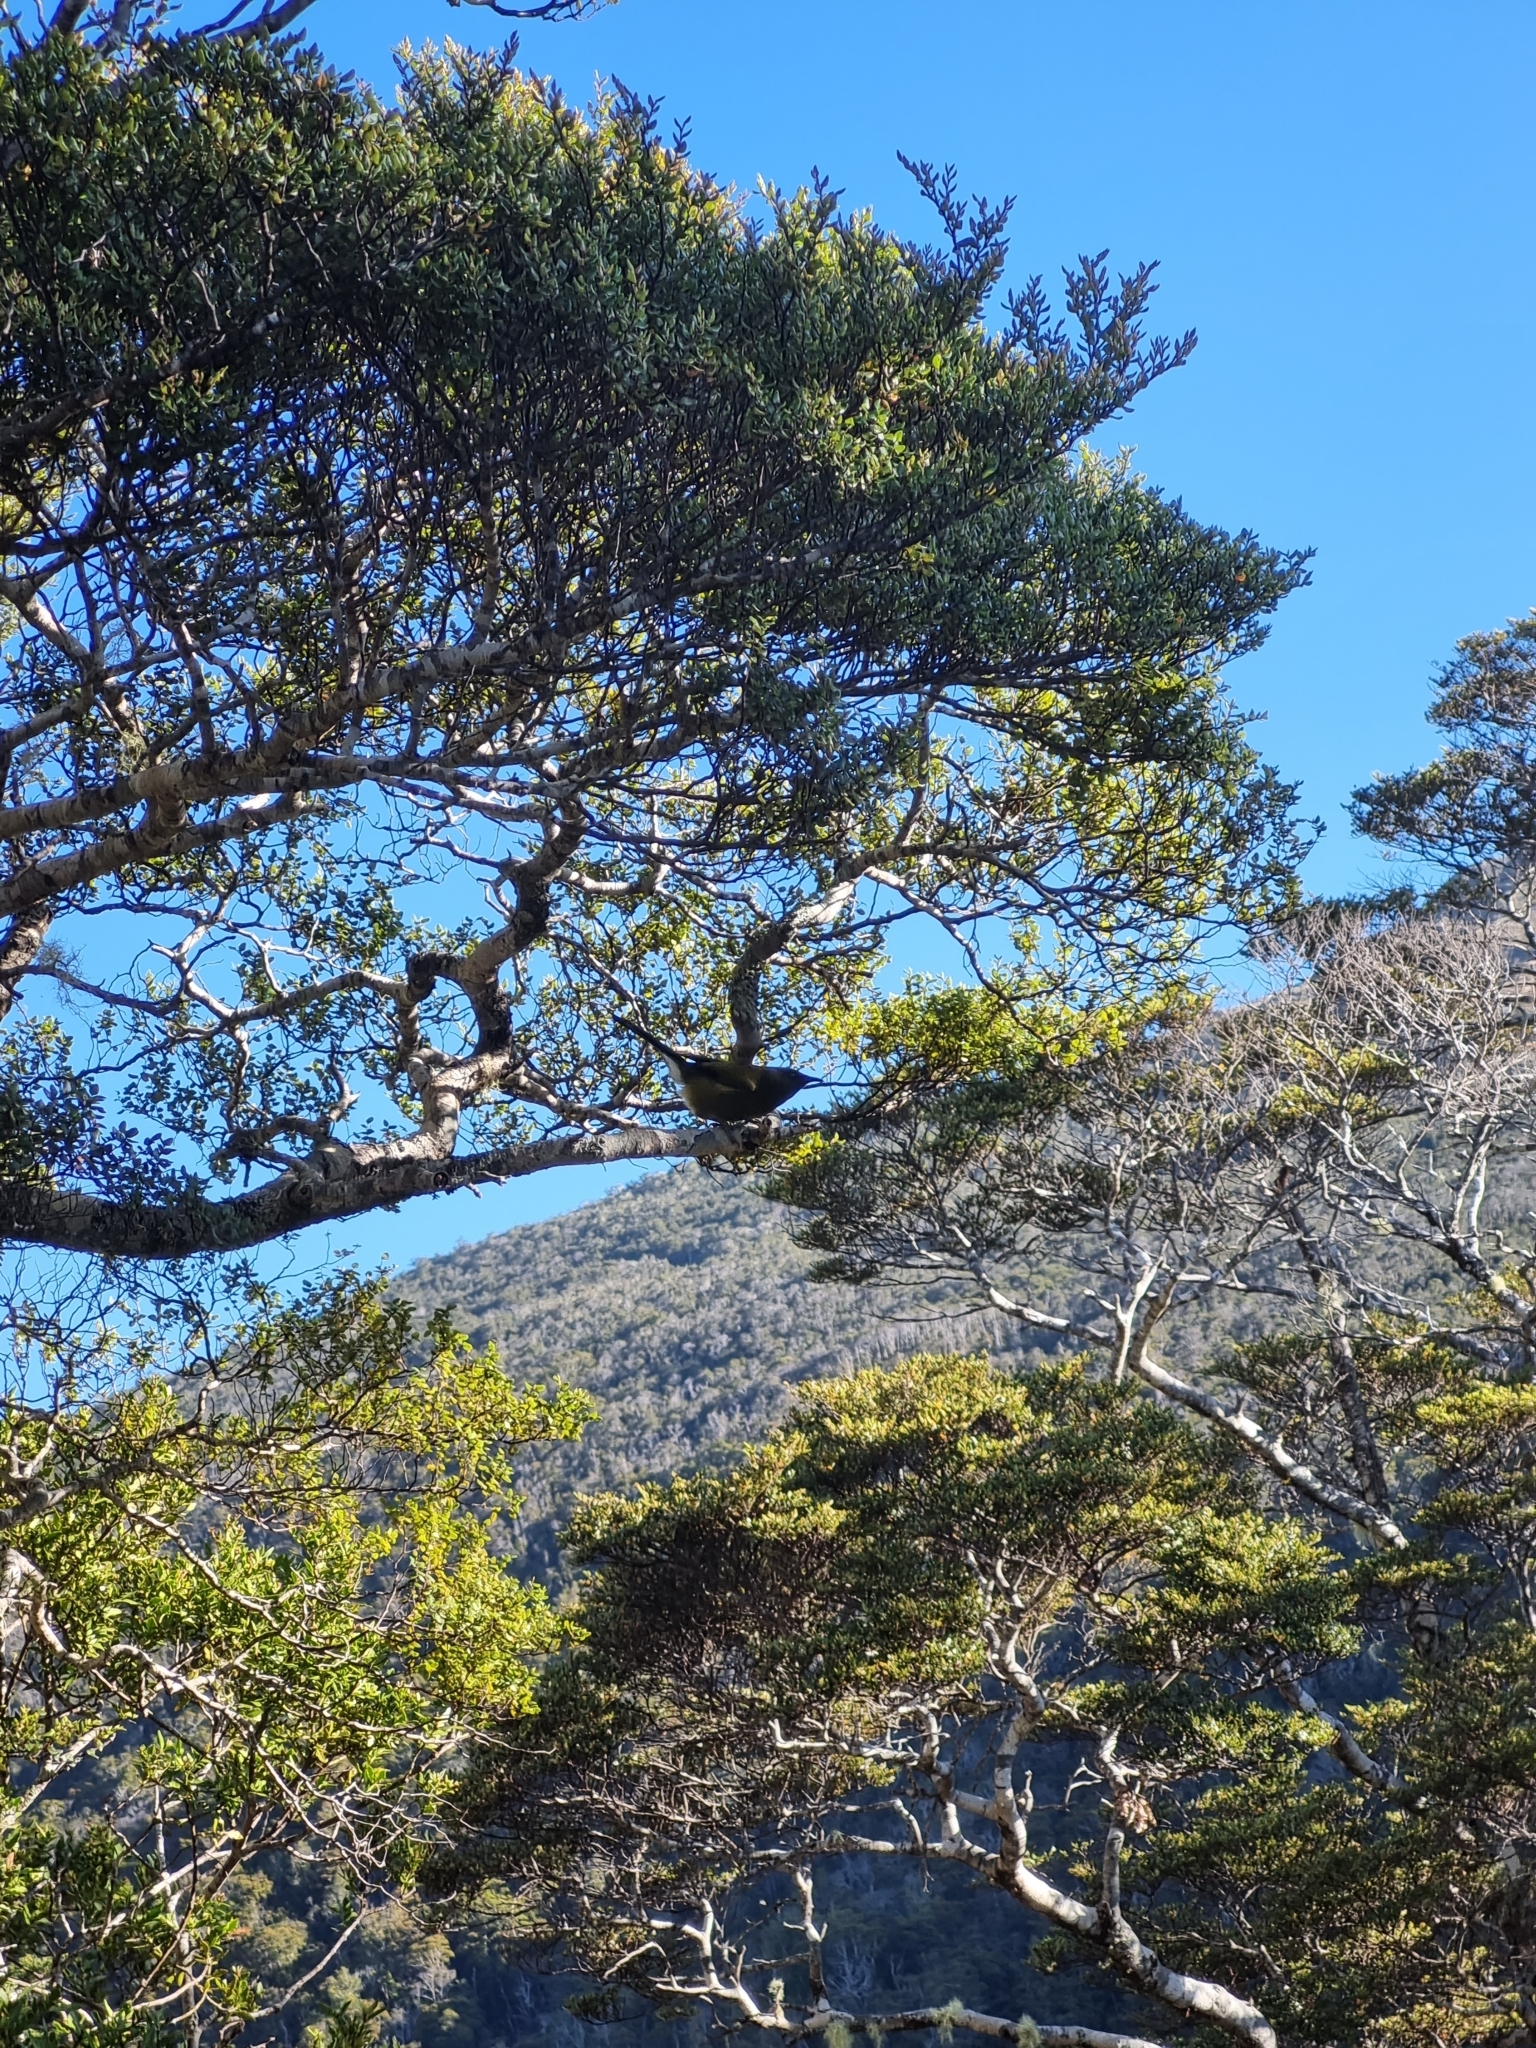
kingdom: Animalia
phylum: Chordata
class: Aves
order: Passeriformes
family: Meliphagidae
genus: Anthornis
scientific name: Anthornis melanura
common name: New zealand bellbird
